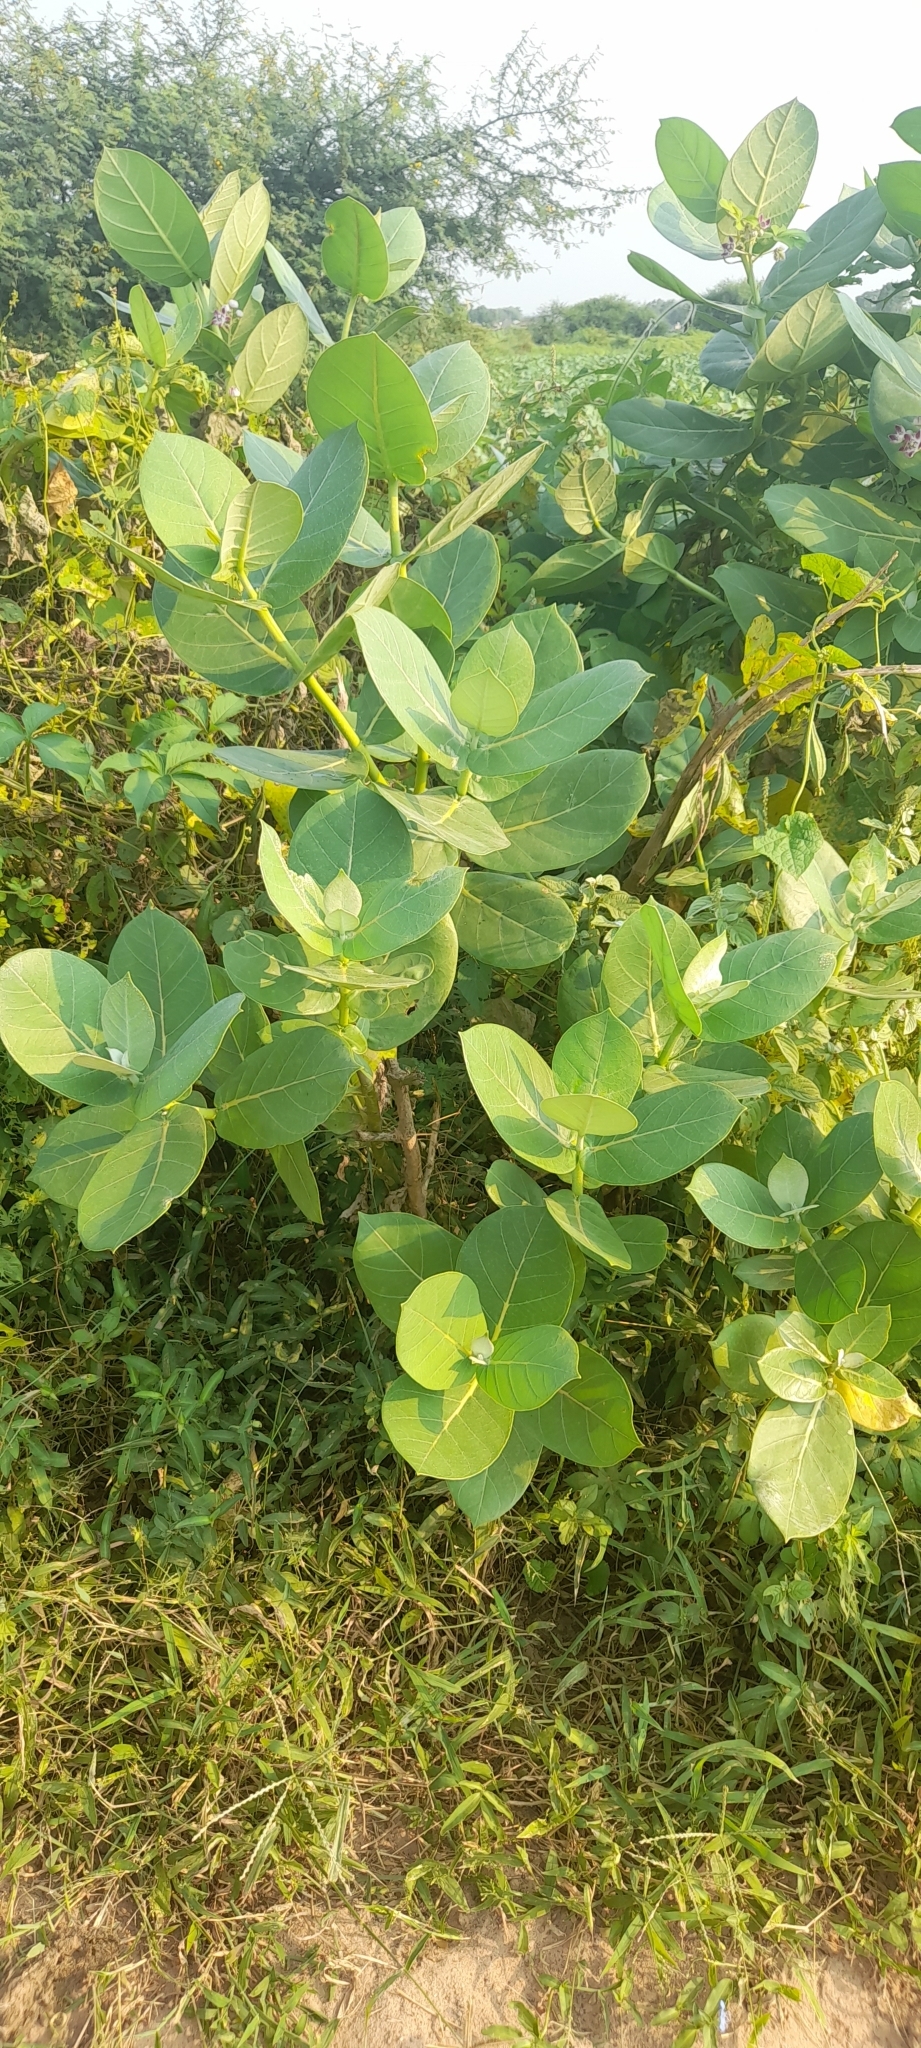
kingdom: Plantae
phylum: Tracheophyta
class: Magnoliopsida
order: Gentianales
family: Apocynaceae
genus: Calotropis
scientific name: Calotropis procera
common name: Roostertree
